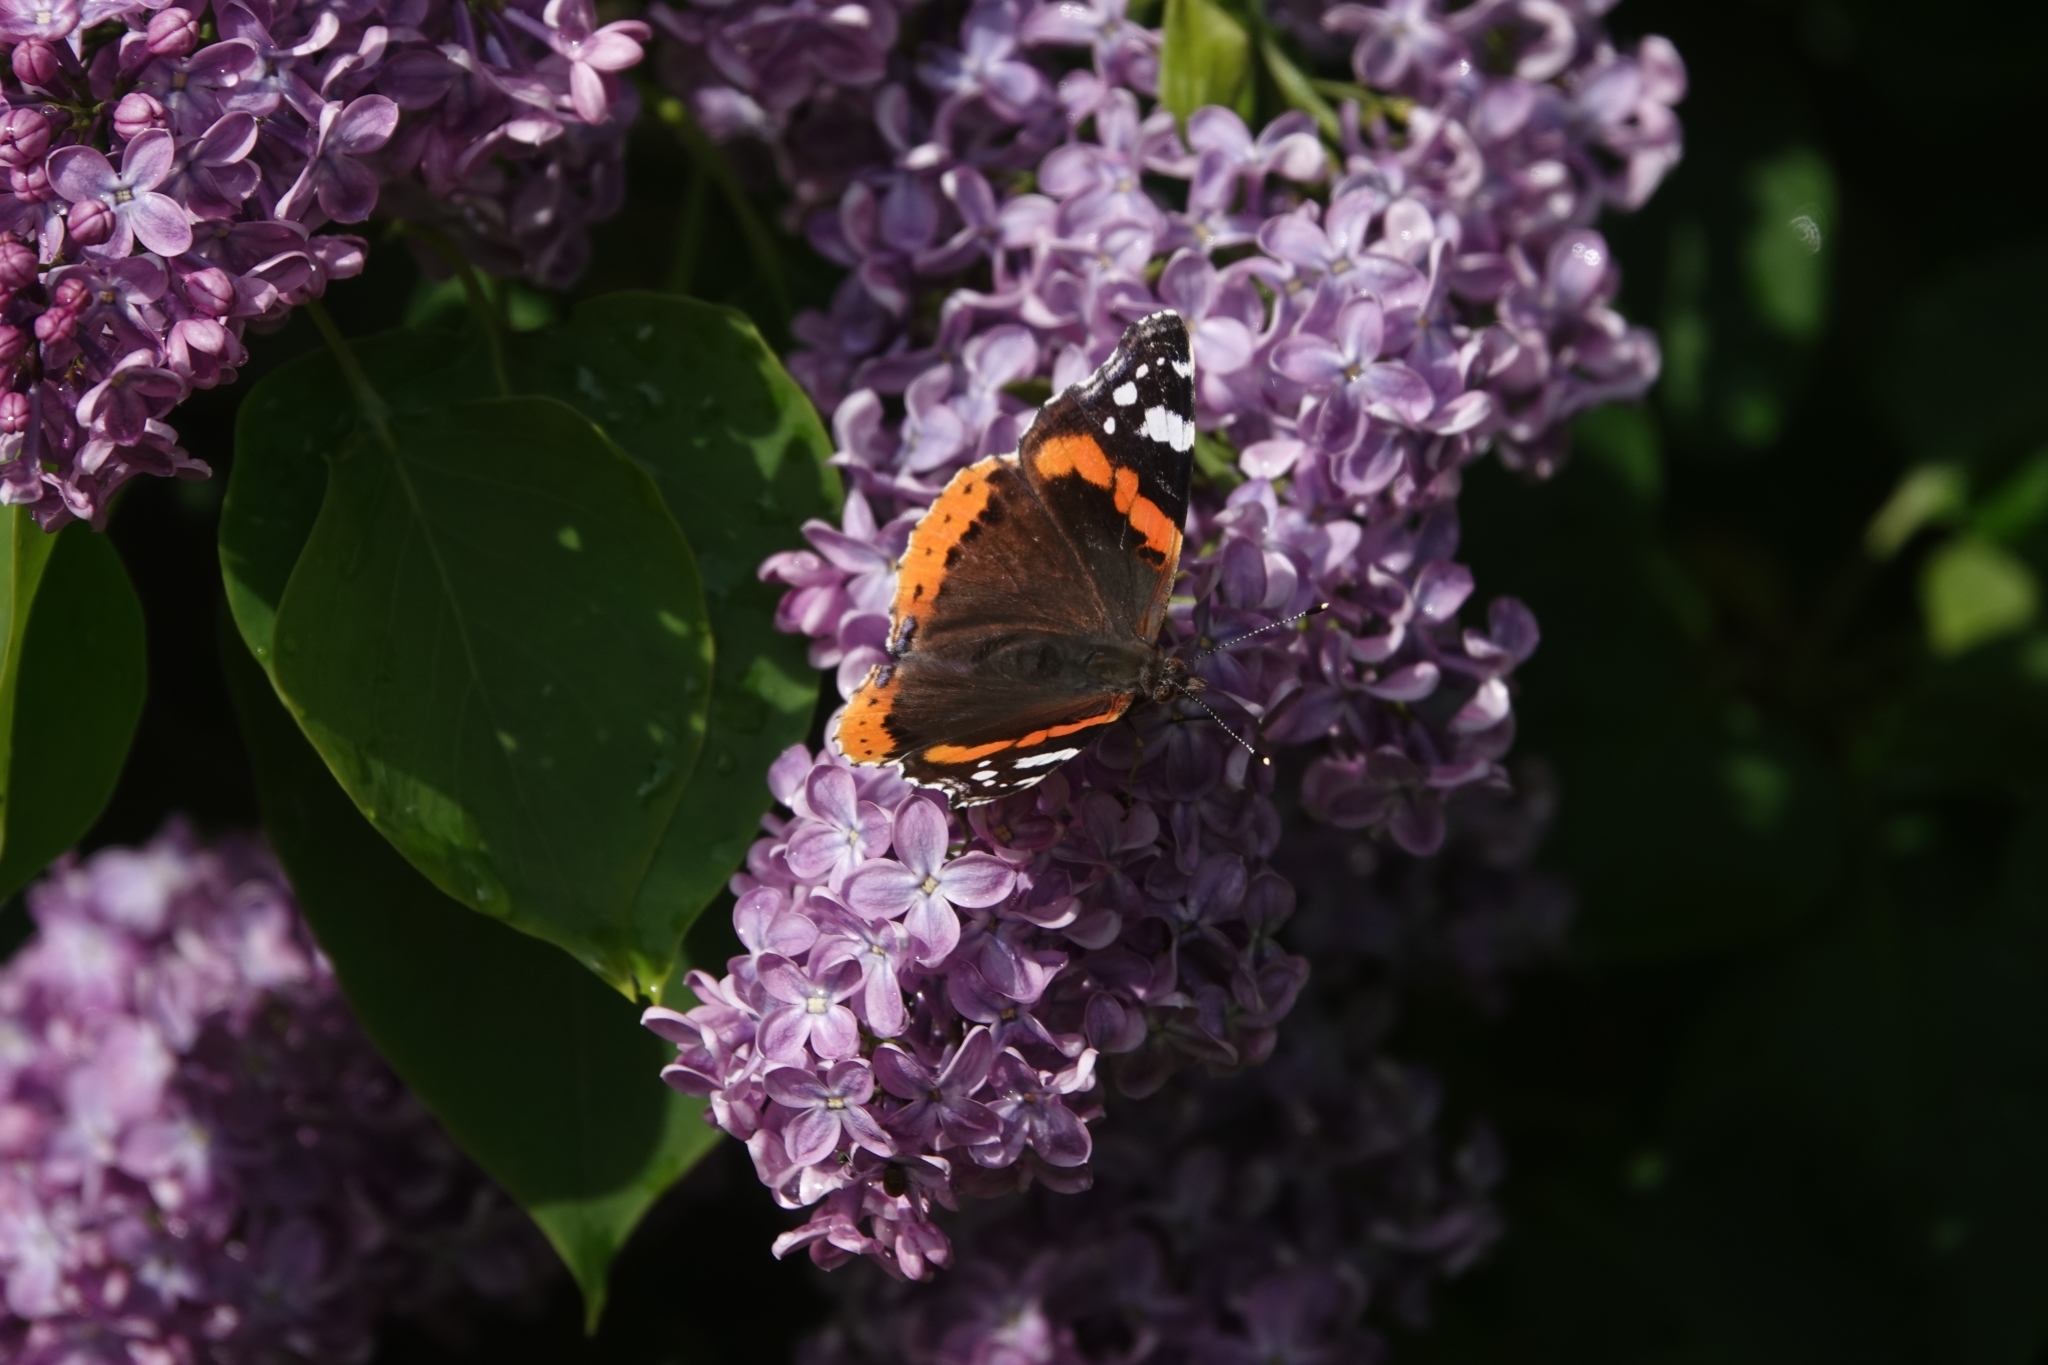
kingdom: Animalia
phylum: Arthropoda
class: Insecta
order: Lepidoptera
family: Nymphalidae
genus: Vanessa
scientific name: Vanessa atalanta
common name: Red admiral
